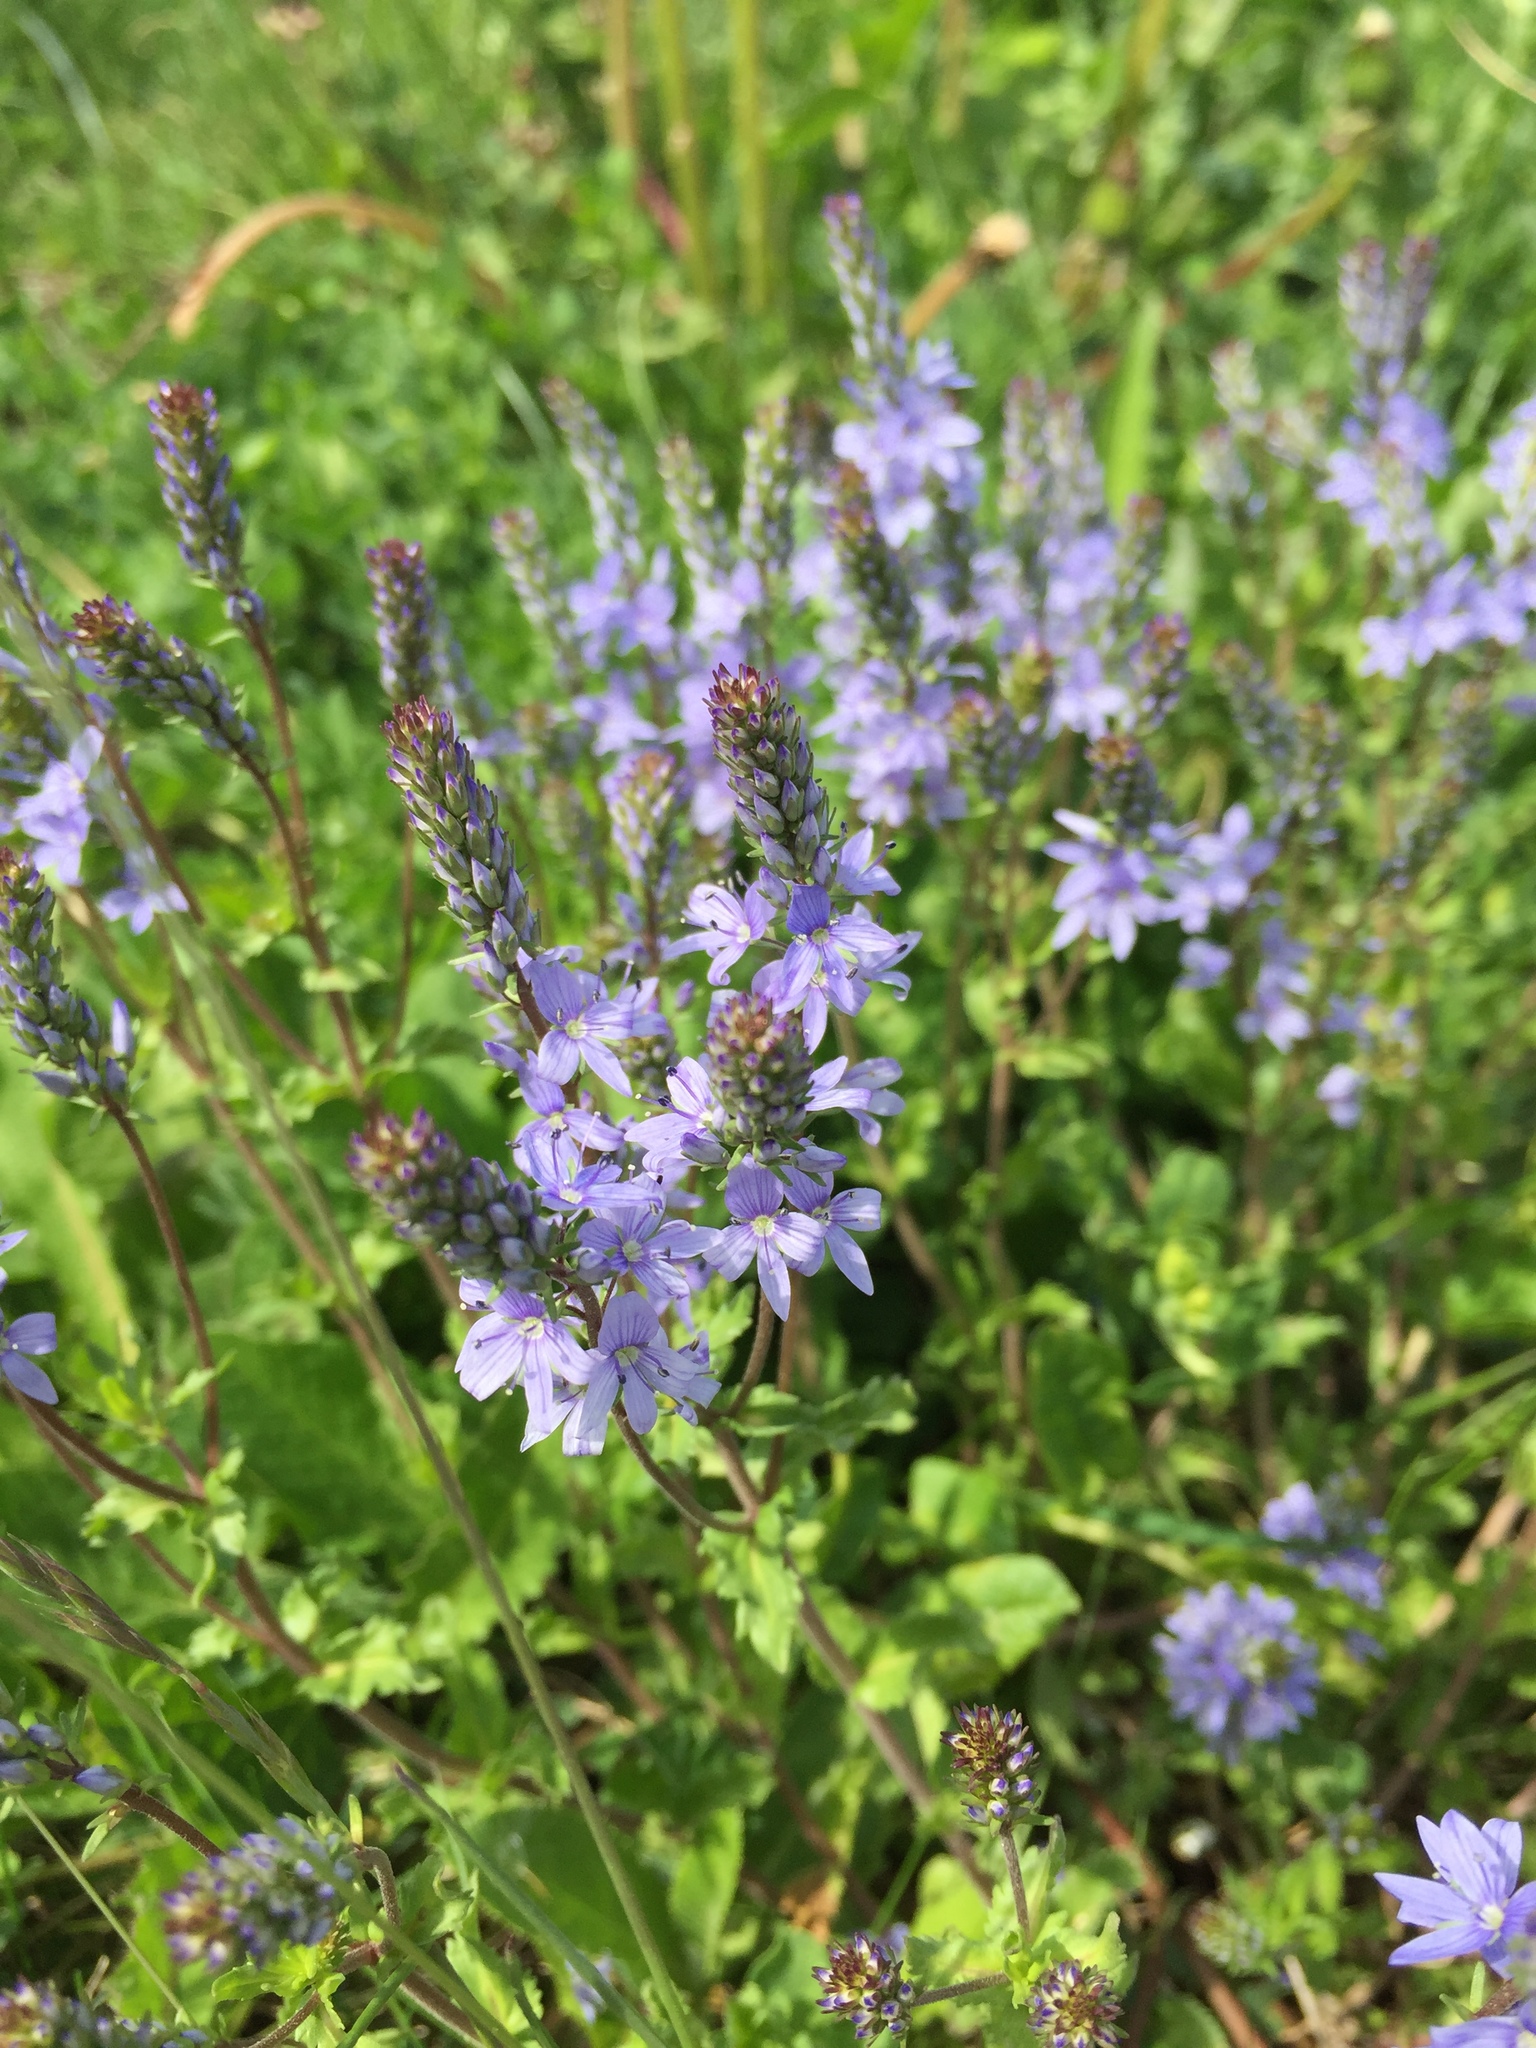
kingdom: Plantae
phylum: Tracheophyta
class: Magnoliopsida
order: Lamiales
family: Plantaginaceae
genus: Veronica
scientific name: Veronica prostrata
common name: Prostrate speedwell
